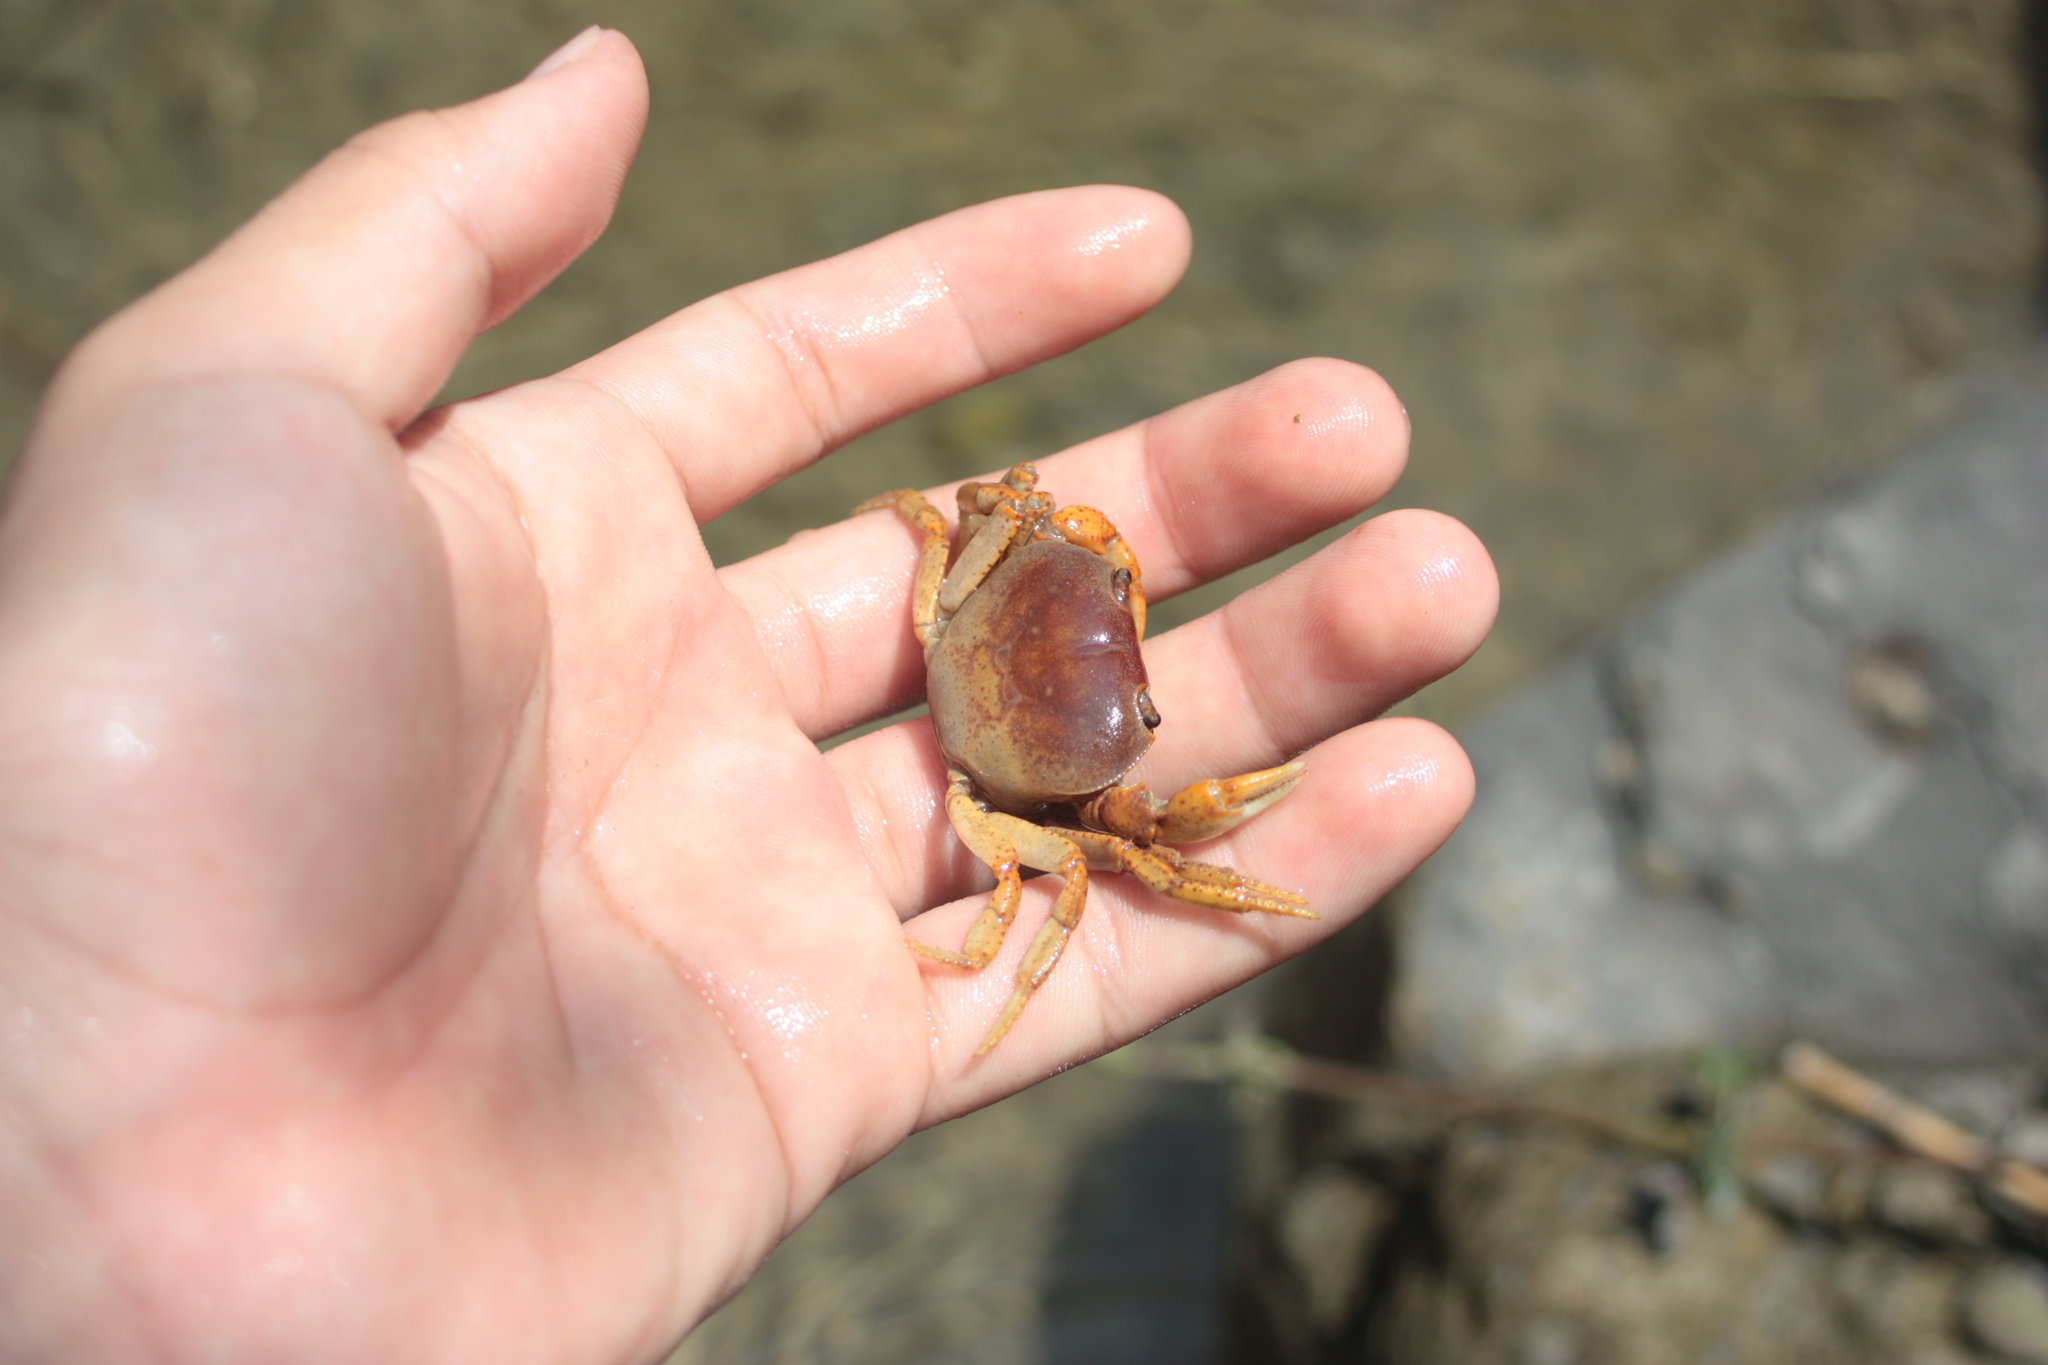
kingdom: Animalia
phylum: Arthropoda
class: Malacostraca
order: Decapoda
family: Potamidae
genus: Geothelphusa
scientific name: Geothelphusa tsayae
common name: She crab
